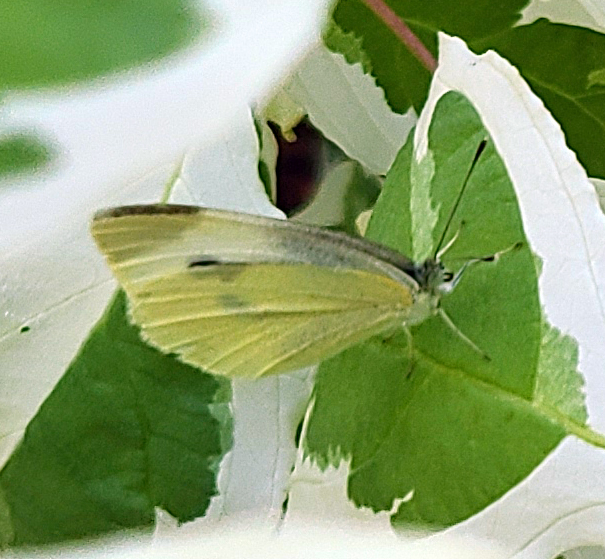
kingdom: Animalia
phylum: Arthropoda
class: Insecta
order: Lepidoptera
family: Pieridae
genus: Pieris
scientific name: Pieris rapae
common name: Small white
